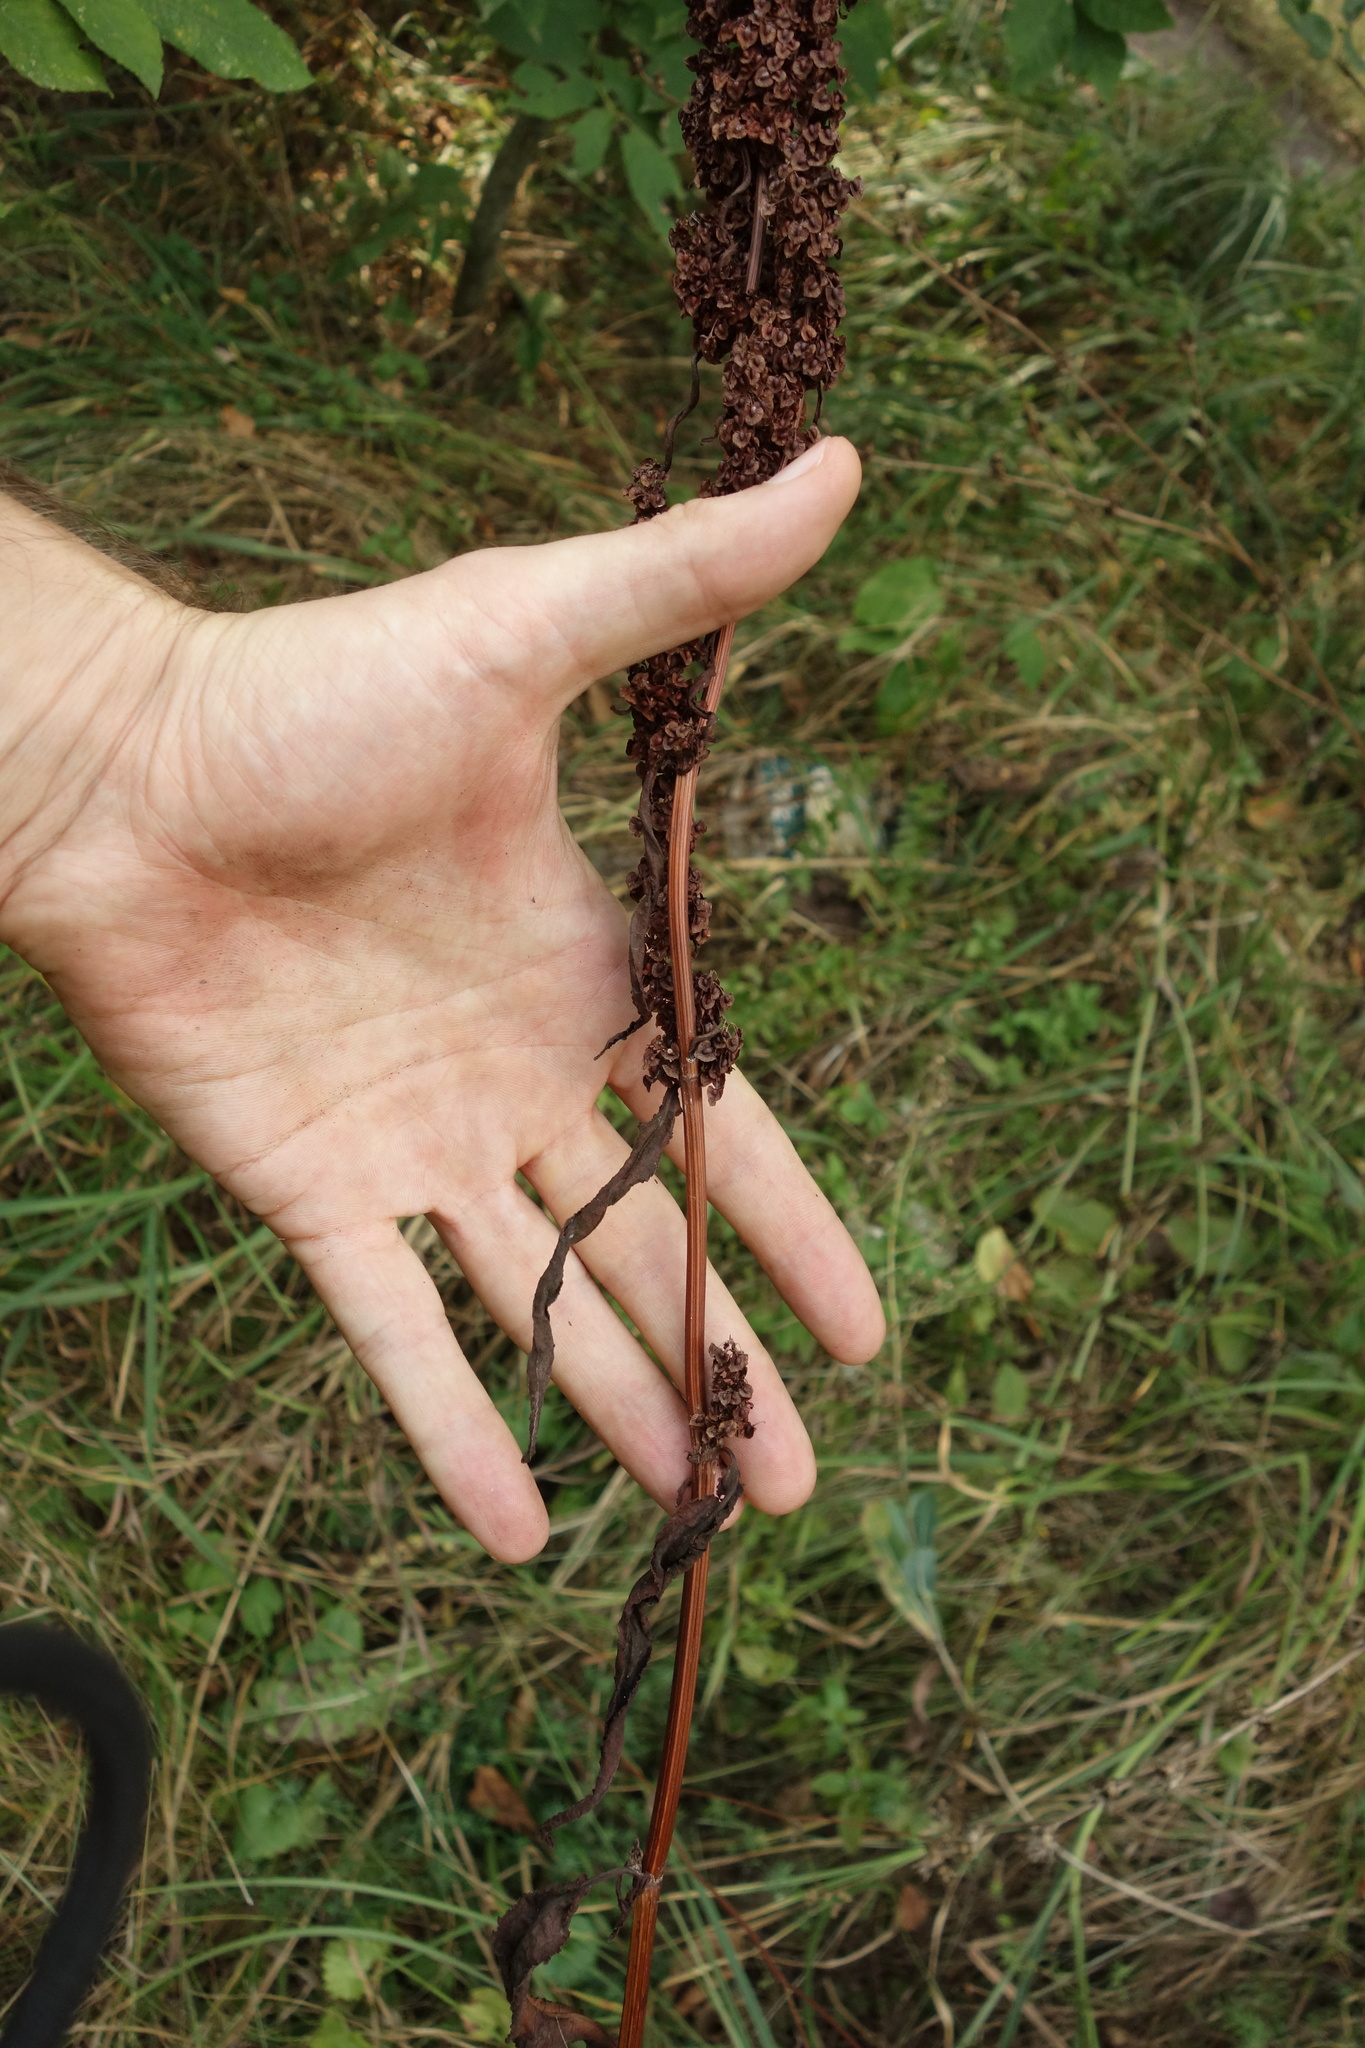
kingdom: Plantae
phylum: Tracheophyta
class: Magnoliopsida
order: Caryophyllales
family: Polygonaceae
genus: Rumex
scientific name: Rumex crispus
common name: Curled dock
